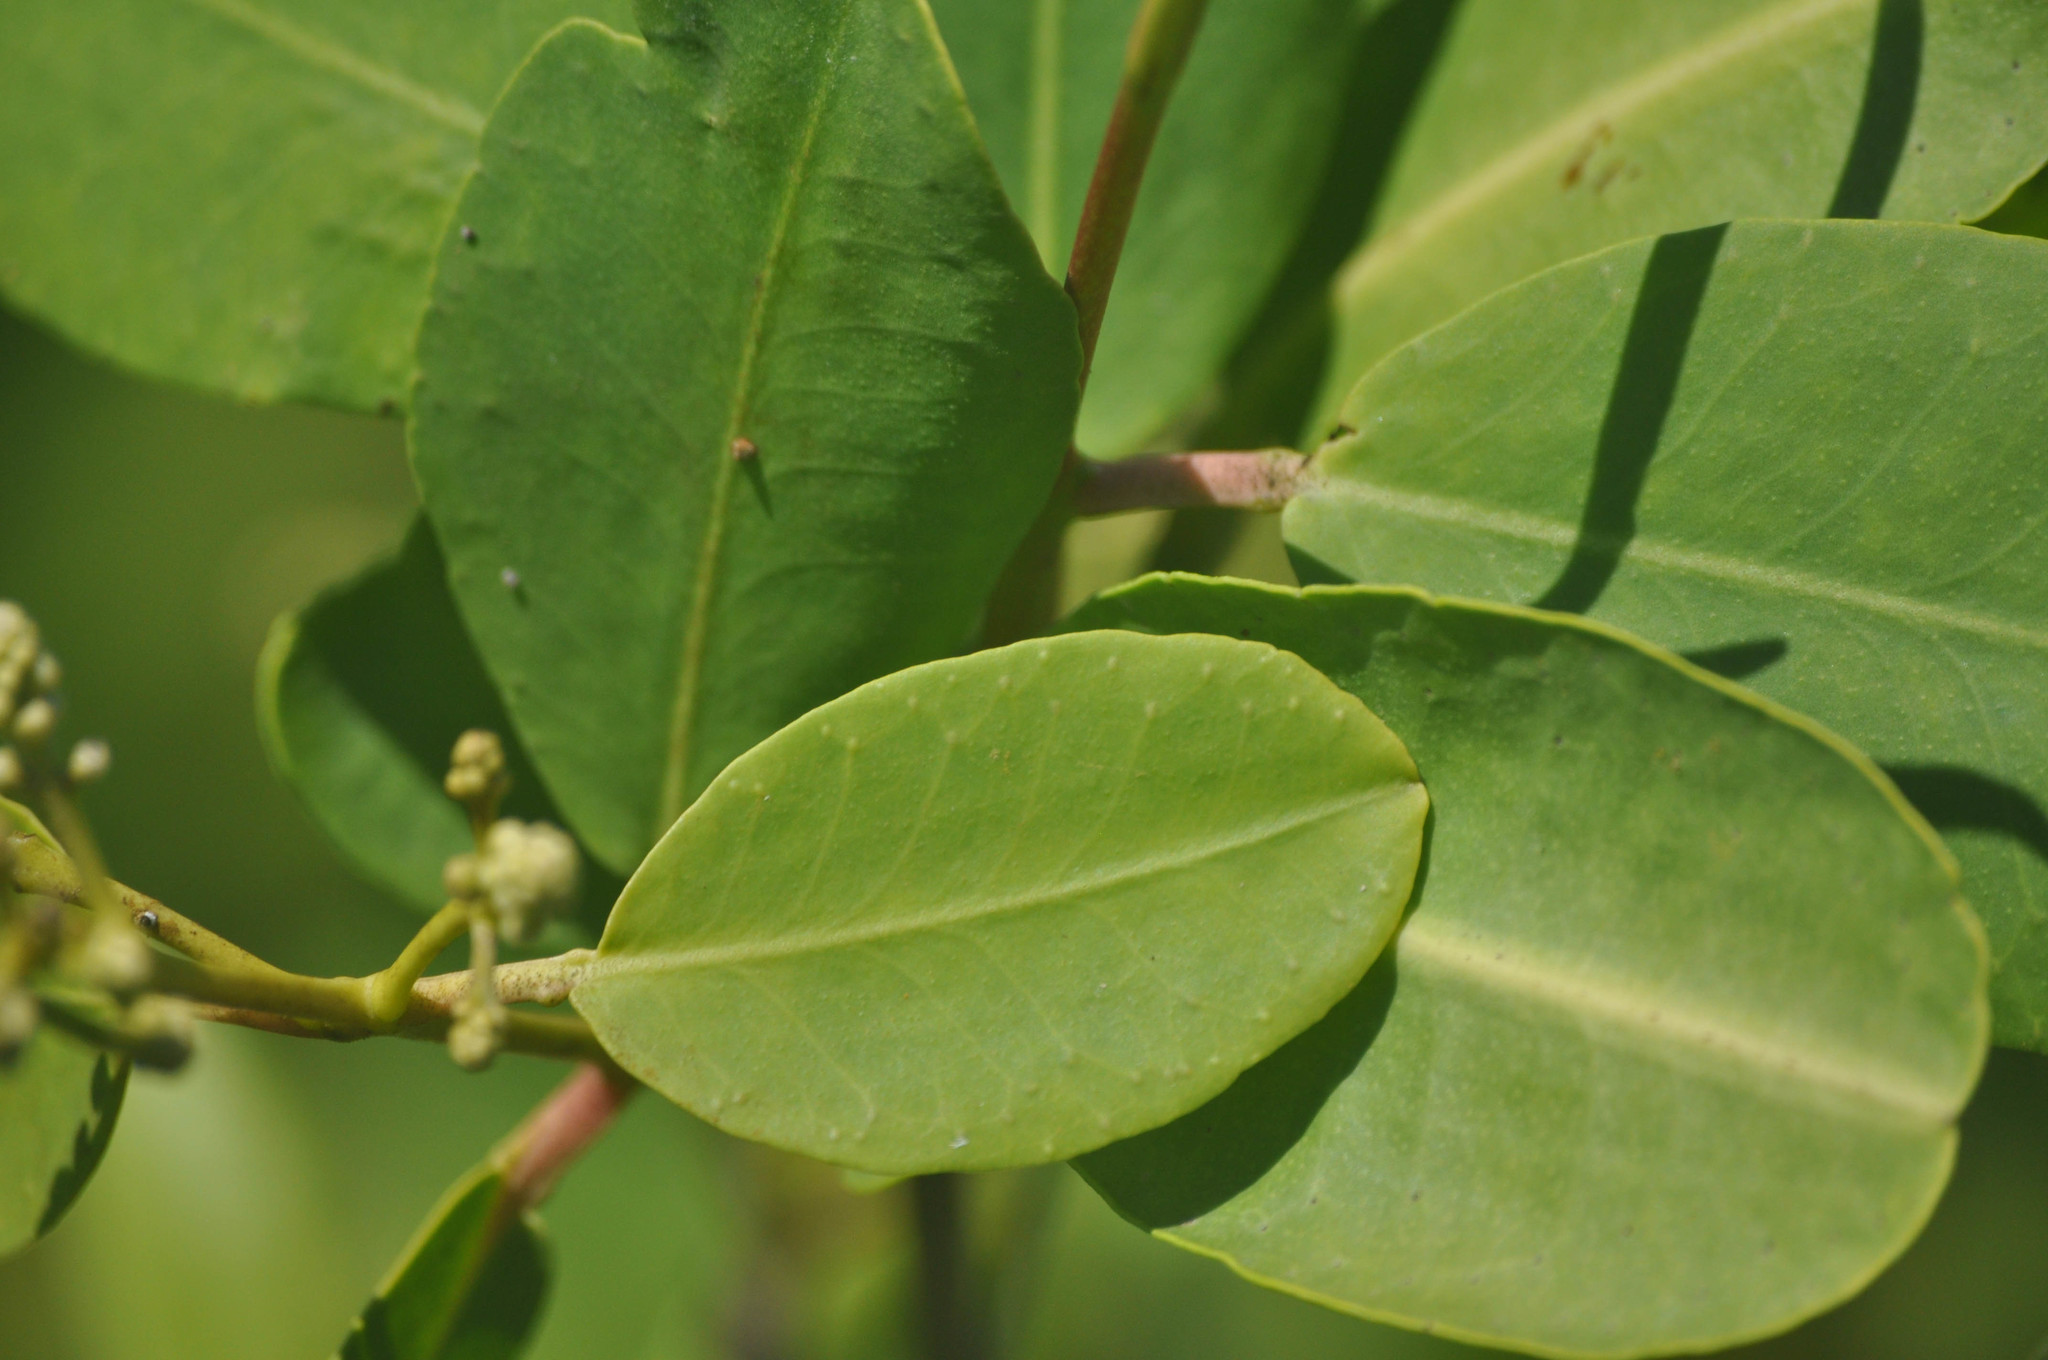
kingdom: Plantae
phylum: Tracheophyta
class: Magnoliopsida
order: Myrtales
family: Combretaceae
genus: Laguncularia
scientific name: Laguncularia racemosa
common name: White mangrove
